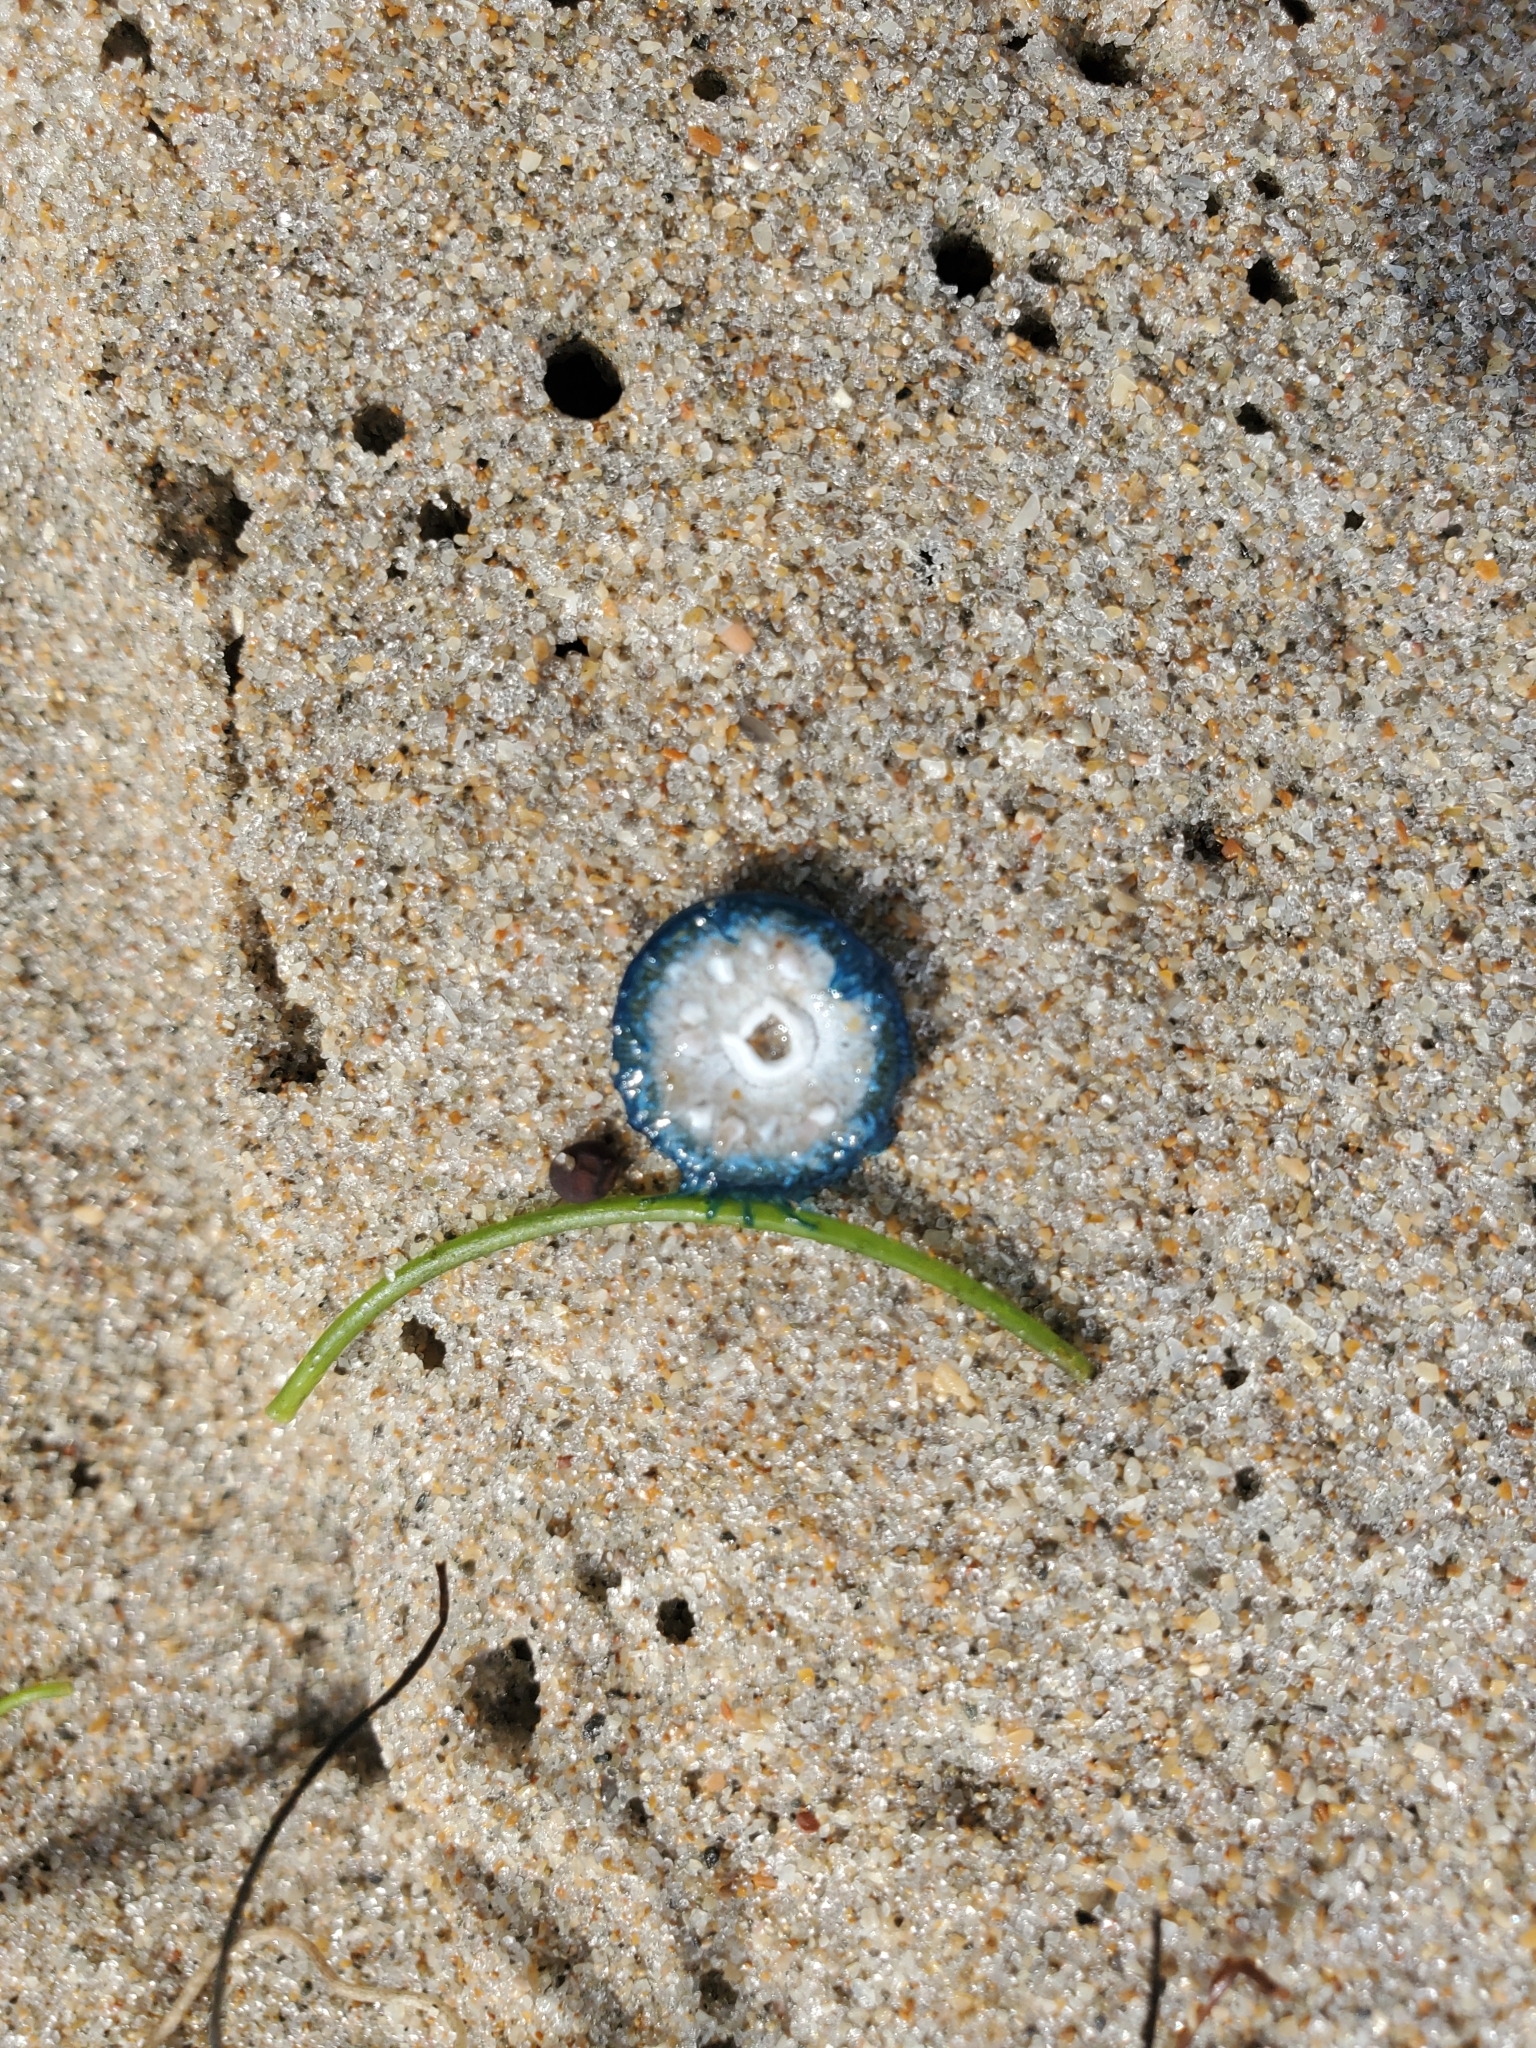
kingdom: Animalia
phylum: Cnidaria
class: Hydrozoa
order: Anthoathecata
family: Porpitidae
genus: Porpita
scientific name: Porpita porpita
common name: Blue button
